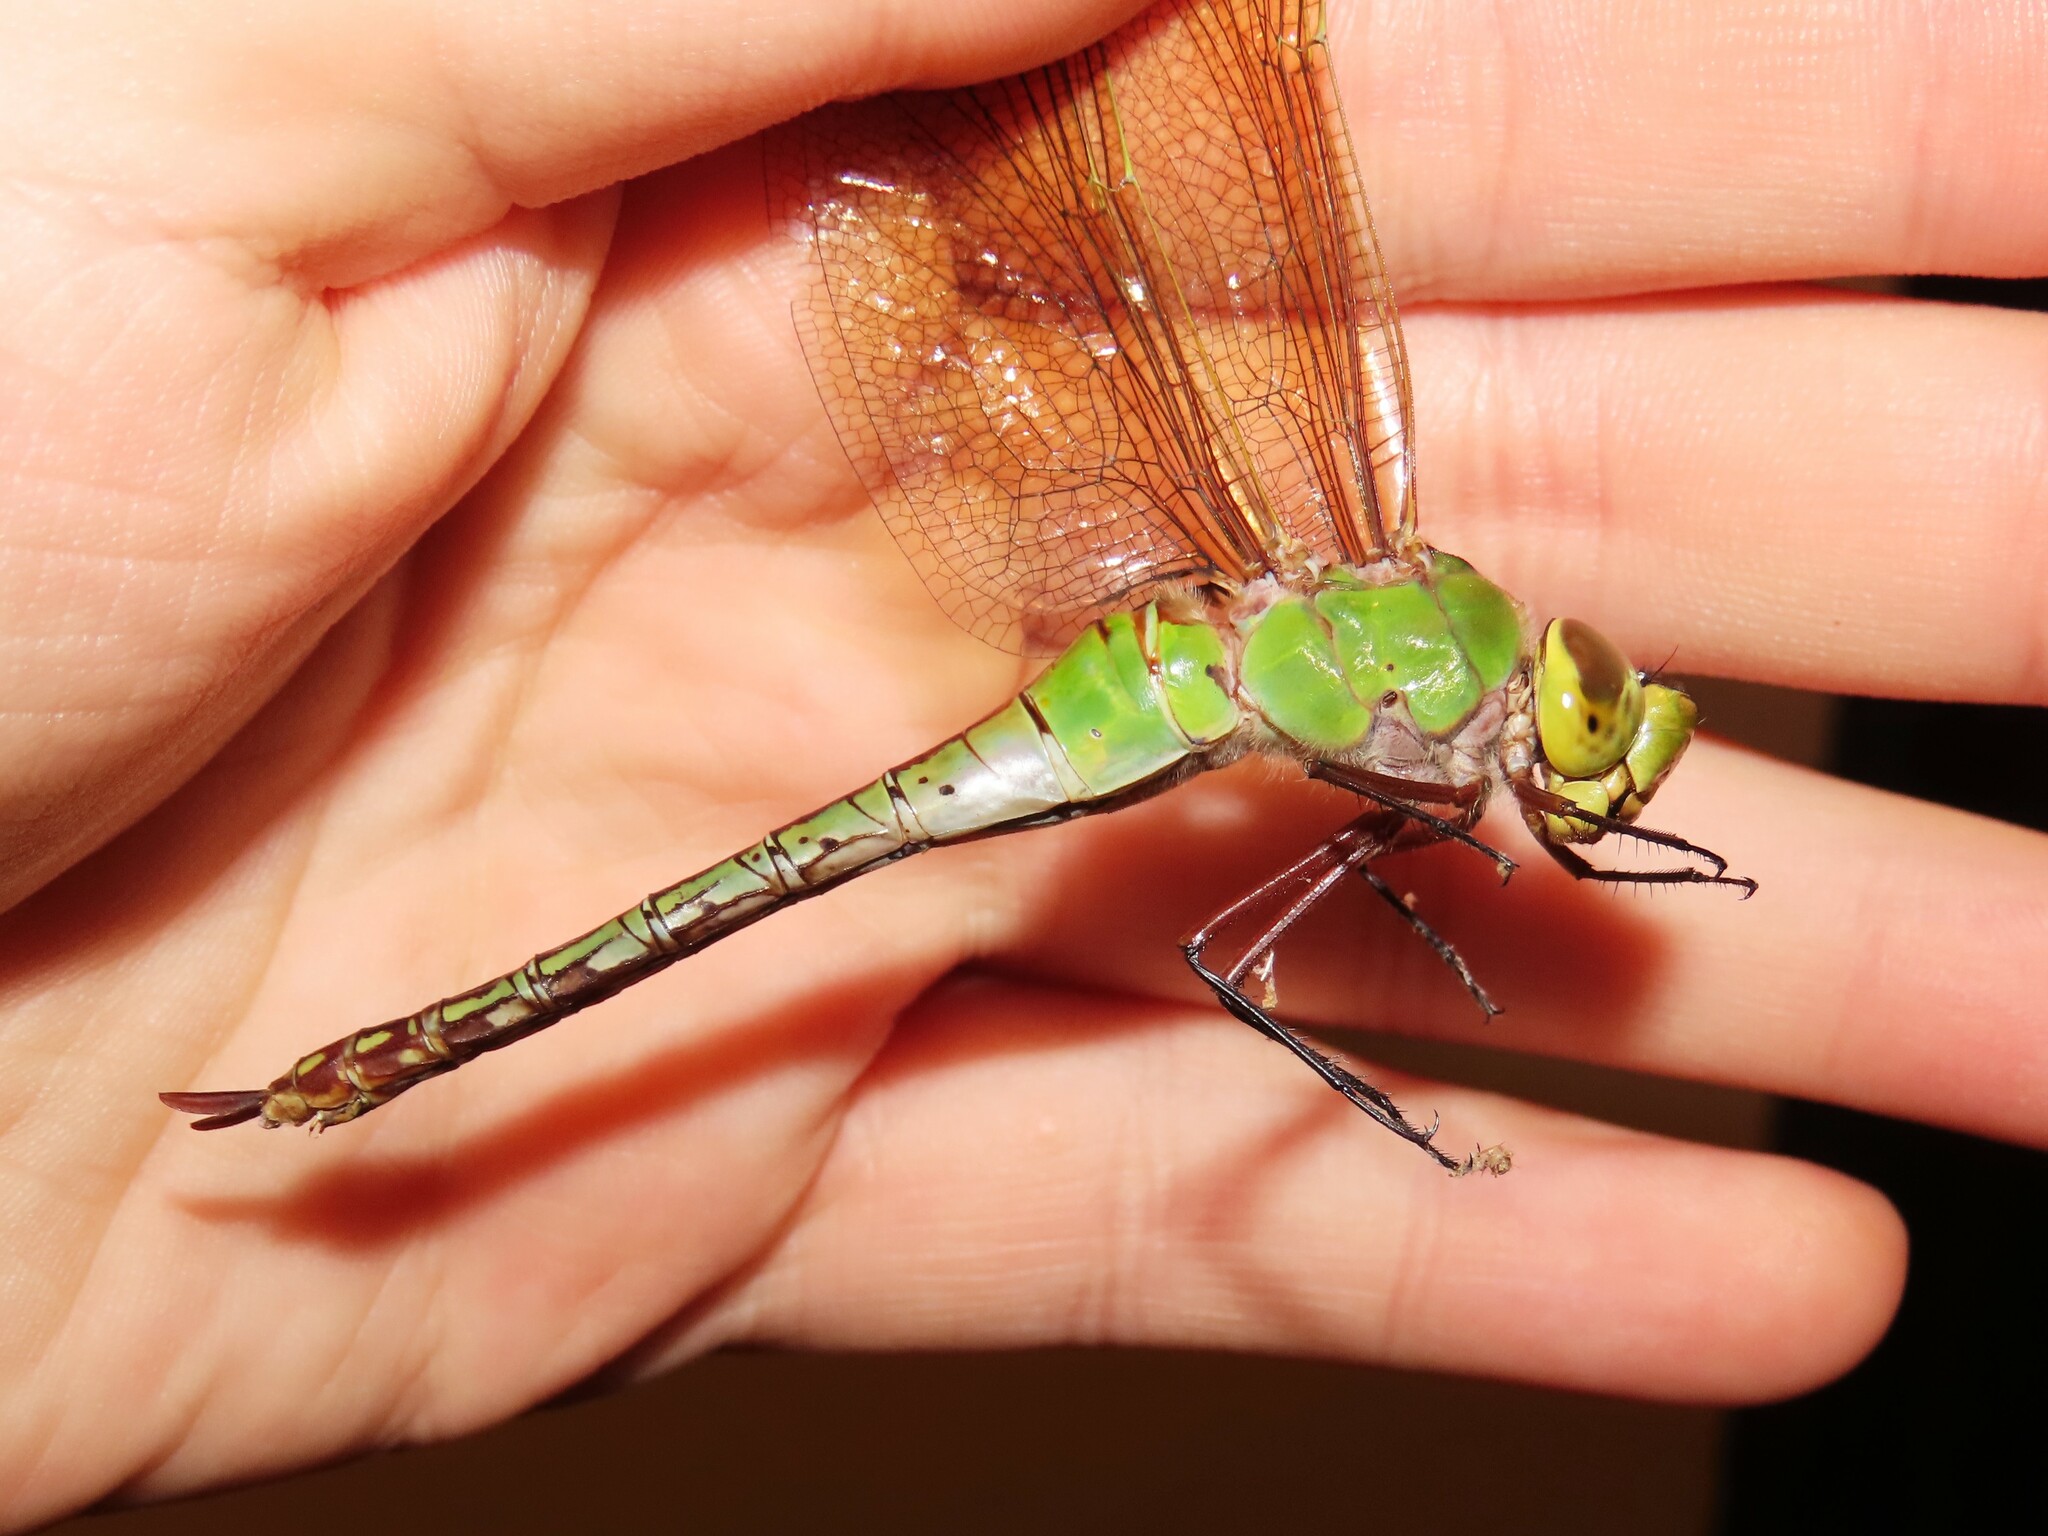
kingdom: Animalia
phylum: Arthropoda
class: Insecta
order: Odonata
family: Aeshnidae
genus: Anax
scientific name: Anax junius
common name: Common green darner
